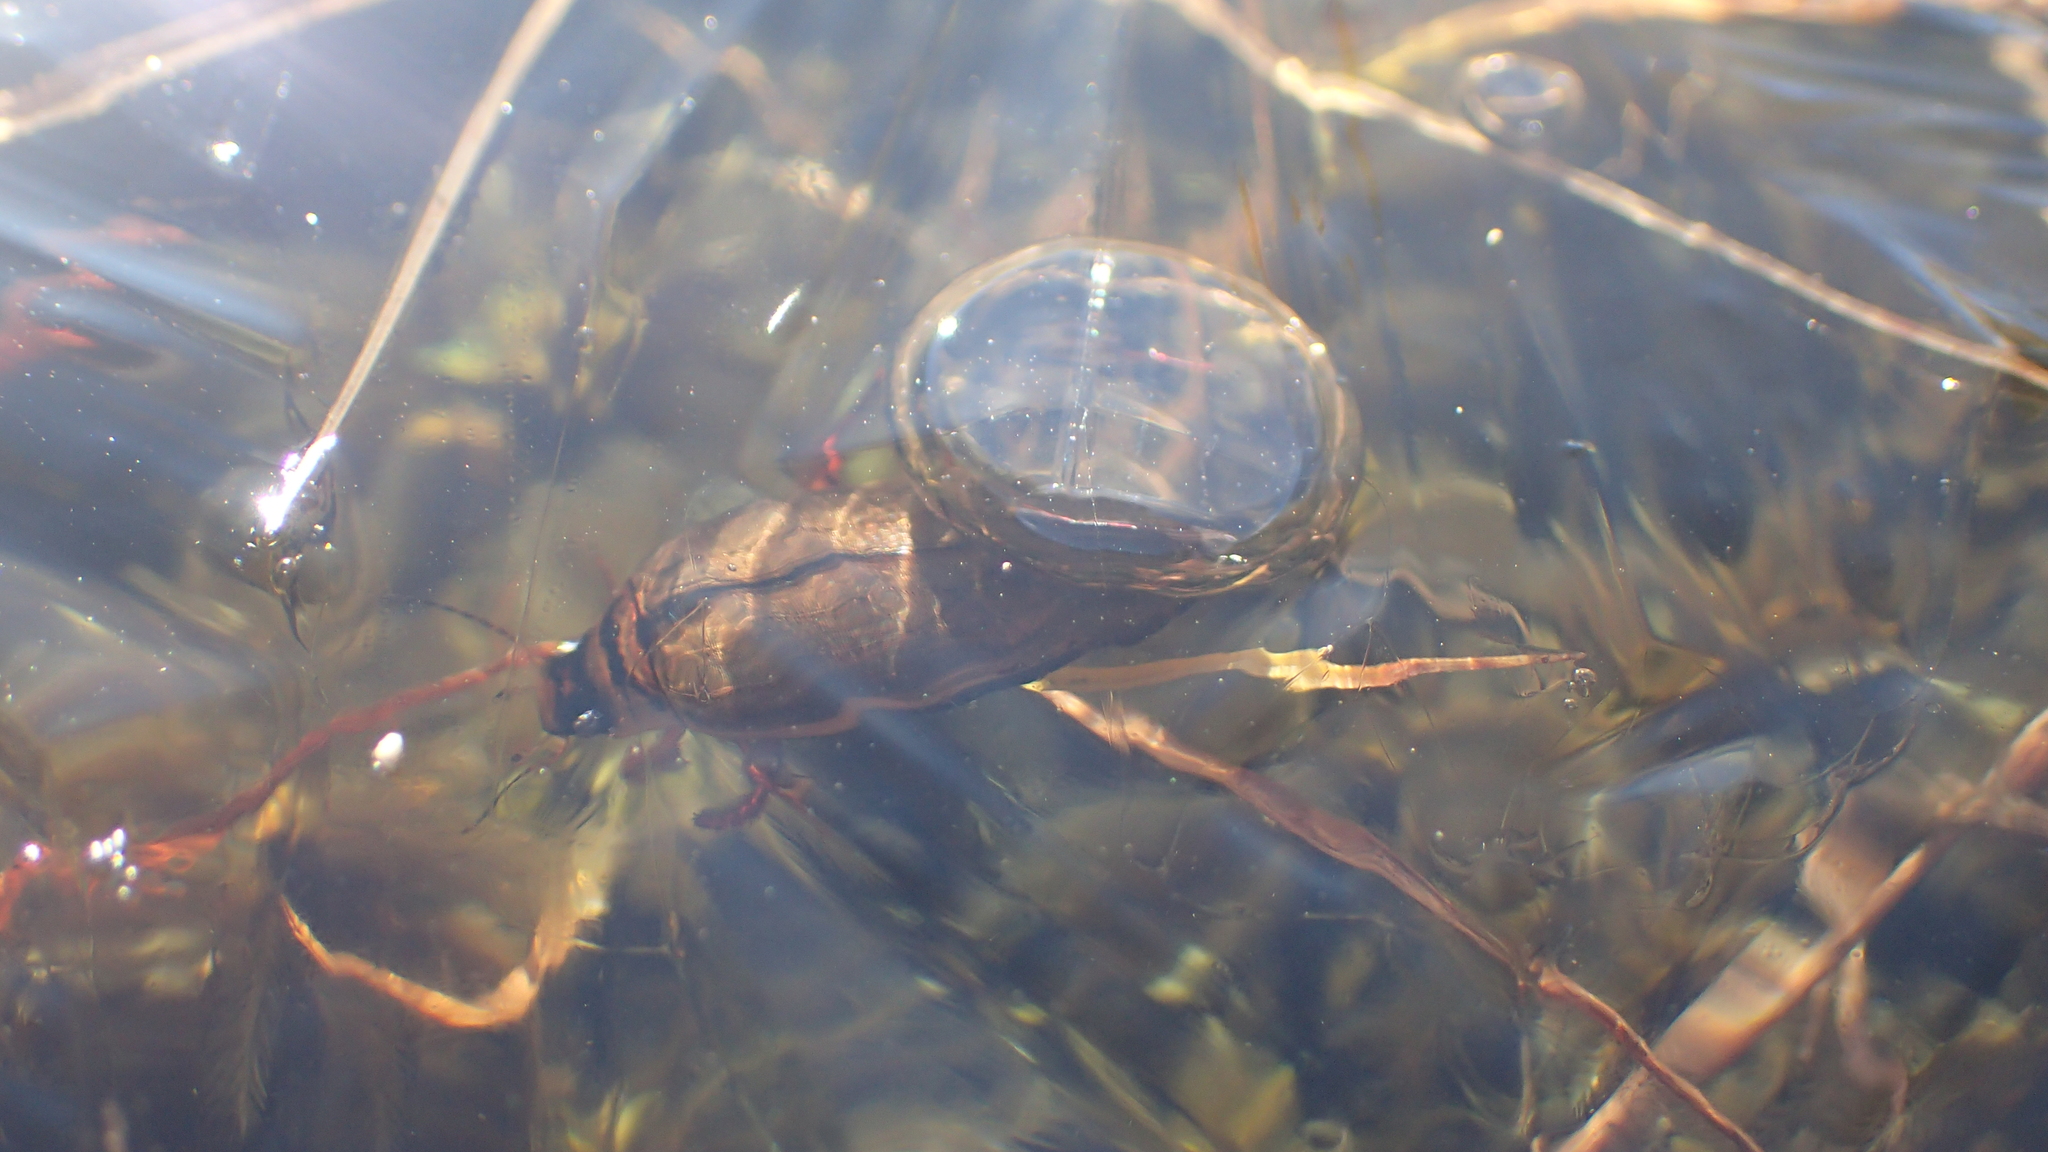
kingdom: Animalia
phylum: Arthropoda
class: Insecta
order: Coleoptera
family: Dytiscidae
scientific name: Dytiscidae
